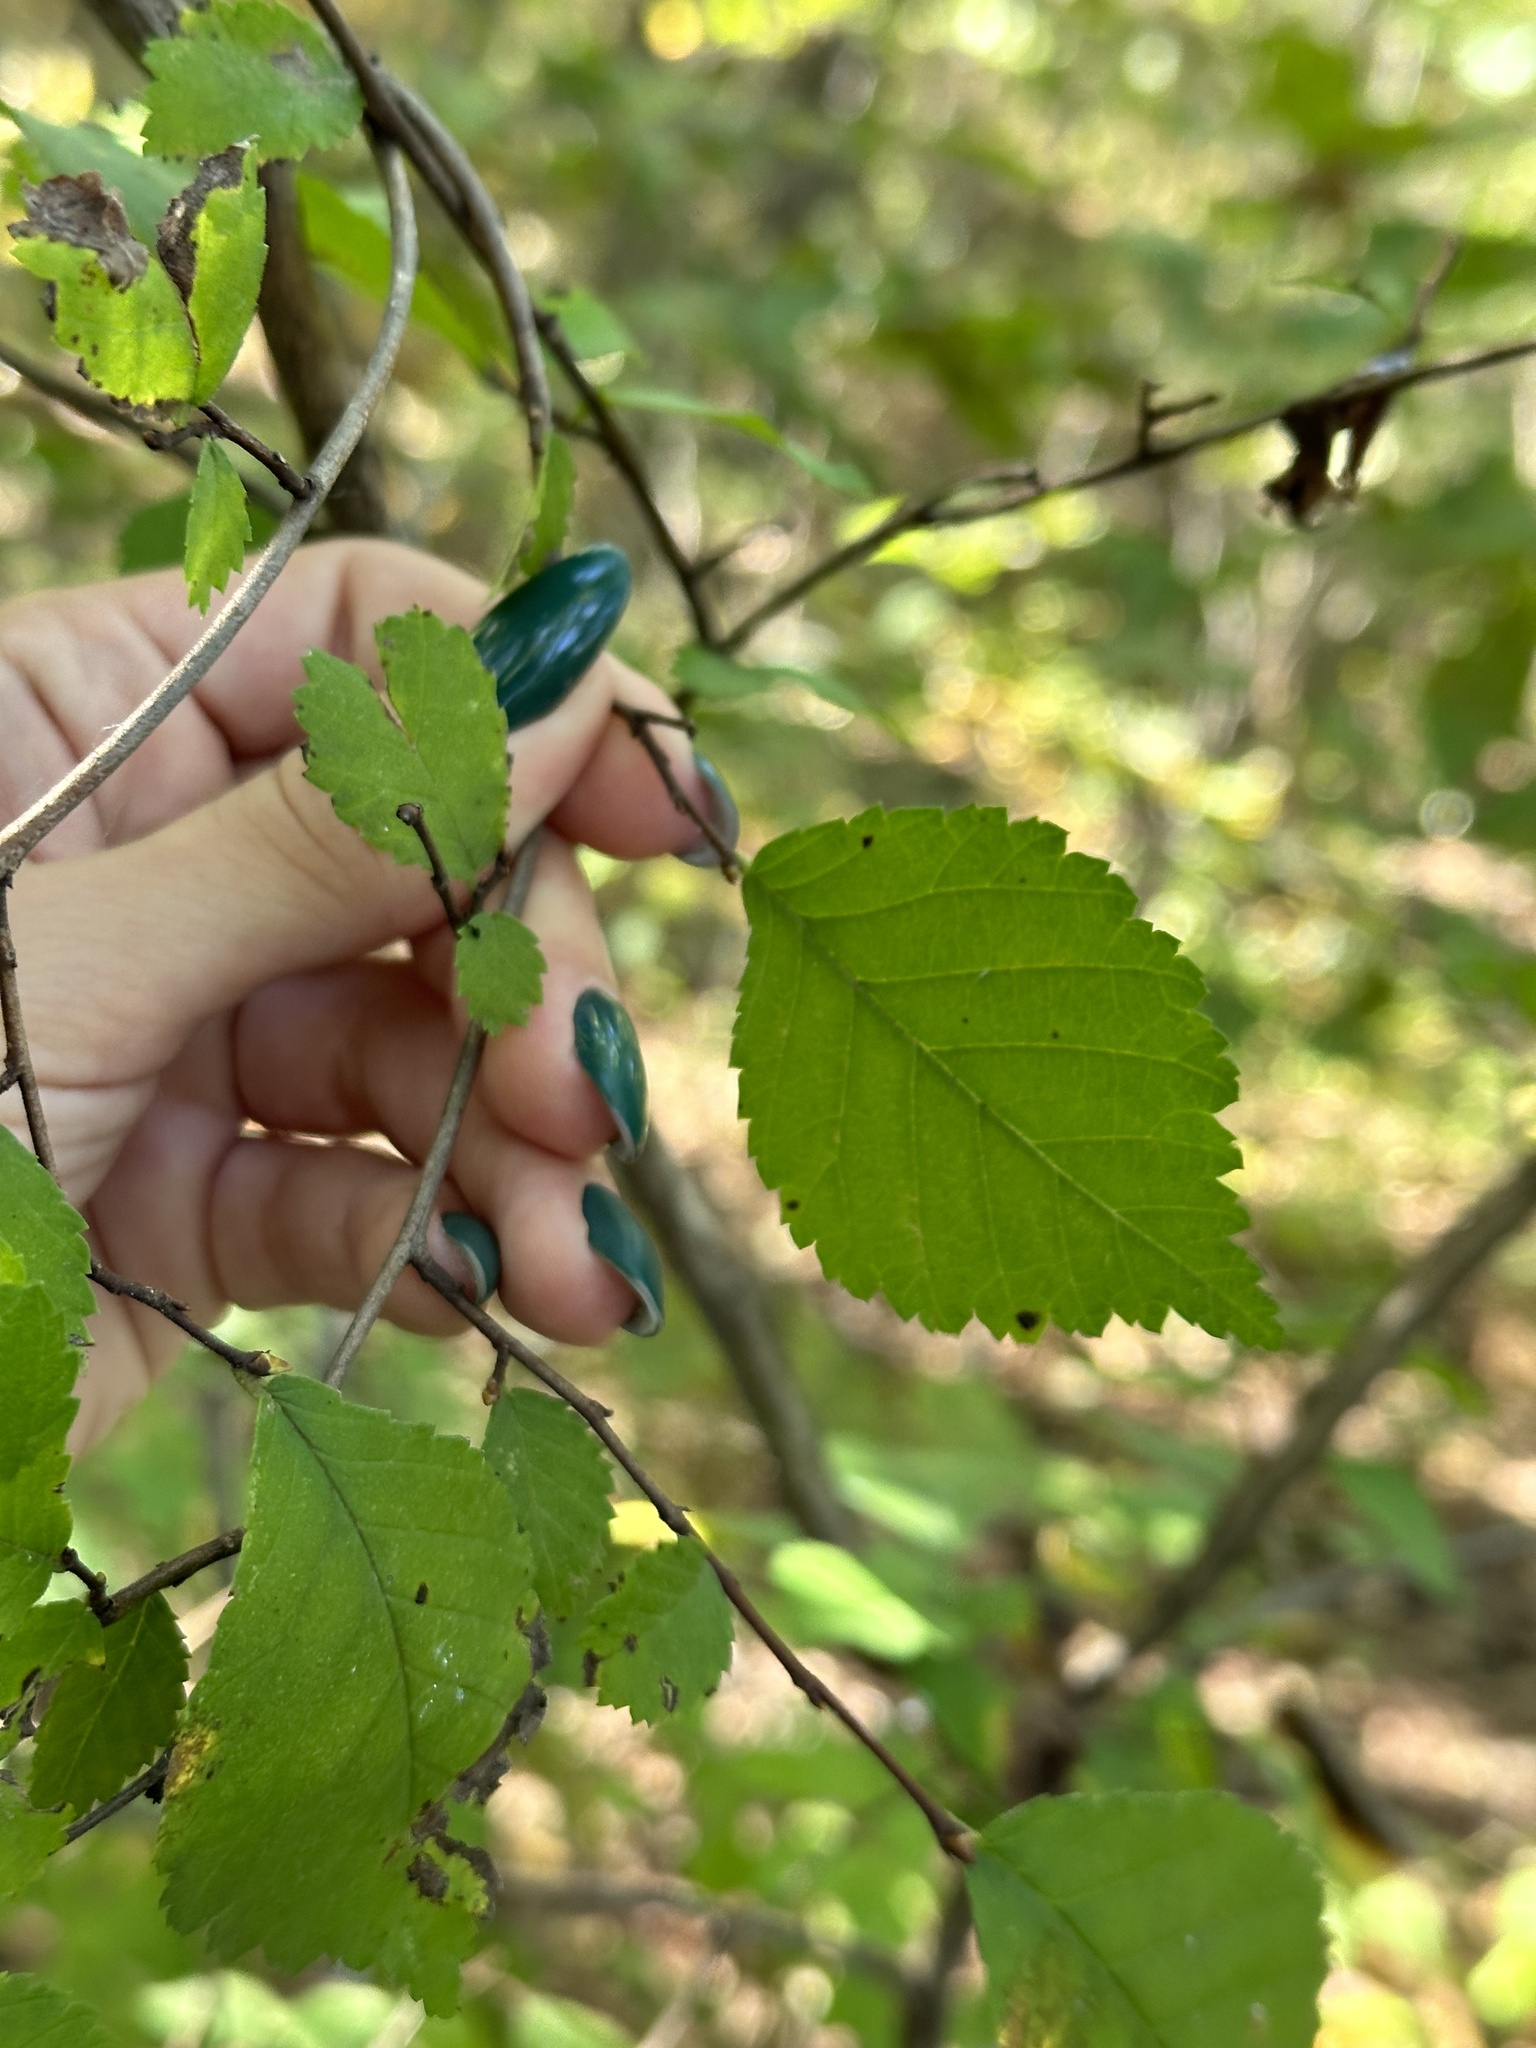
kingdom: Plantae
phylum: Tracheophyta
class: Magnoliopsida
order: Rosales
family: Ulmaceae
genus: Ulmus
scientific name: Ulmus davidiana
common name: Japanese elm
